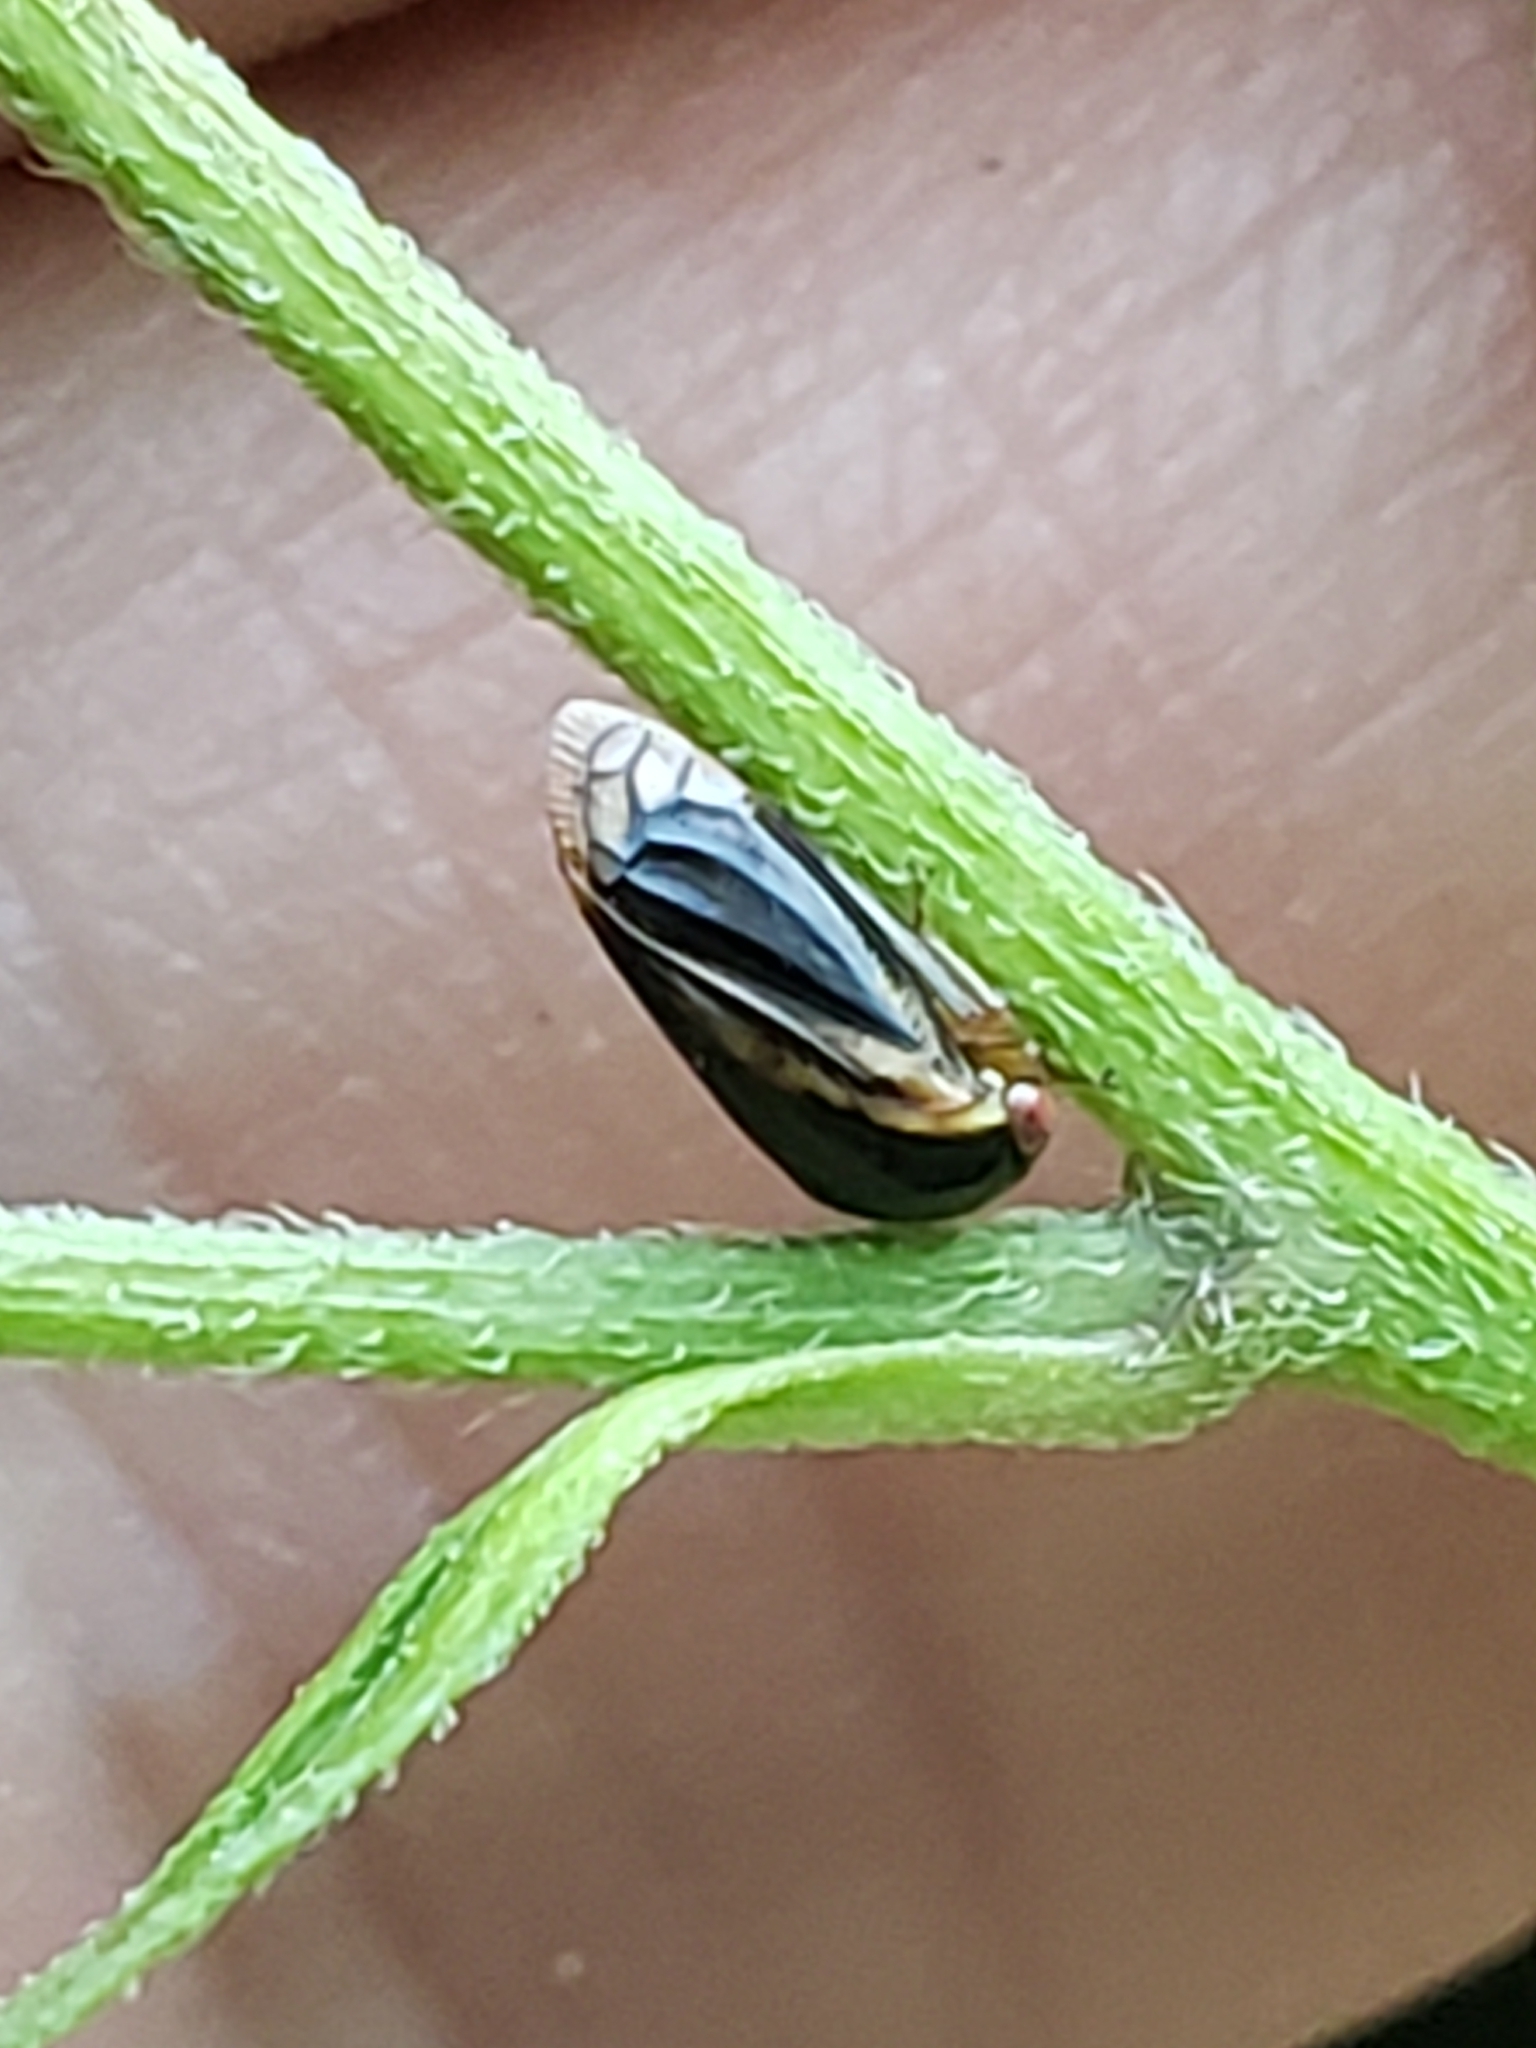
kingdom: Animalia
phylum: Arthropoda
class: Insecta
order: Hemiptera
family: Membracidae
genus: Acutalis
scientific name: Acutalis tartarea
